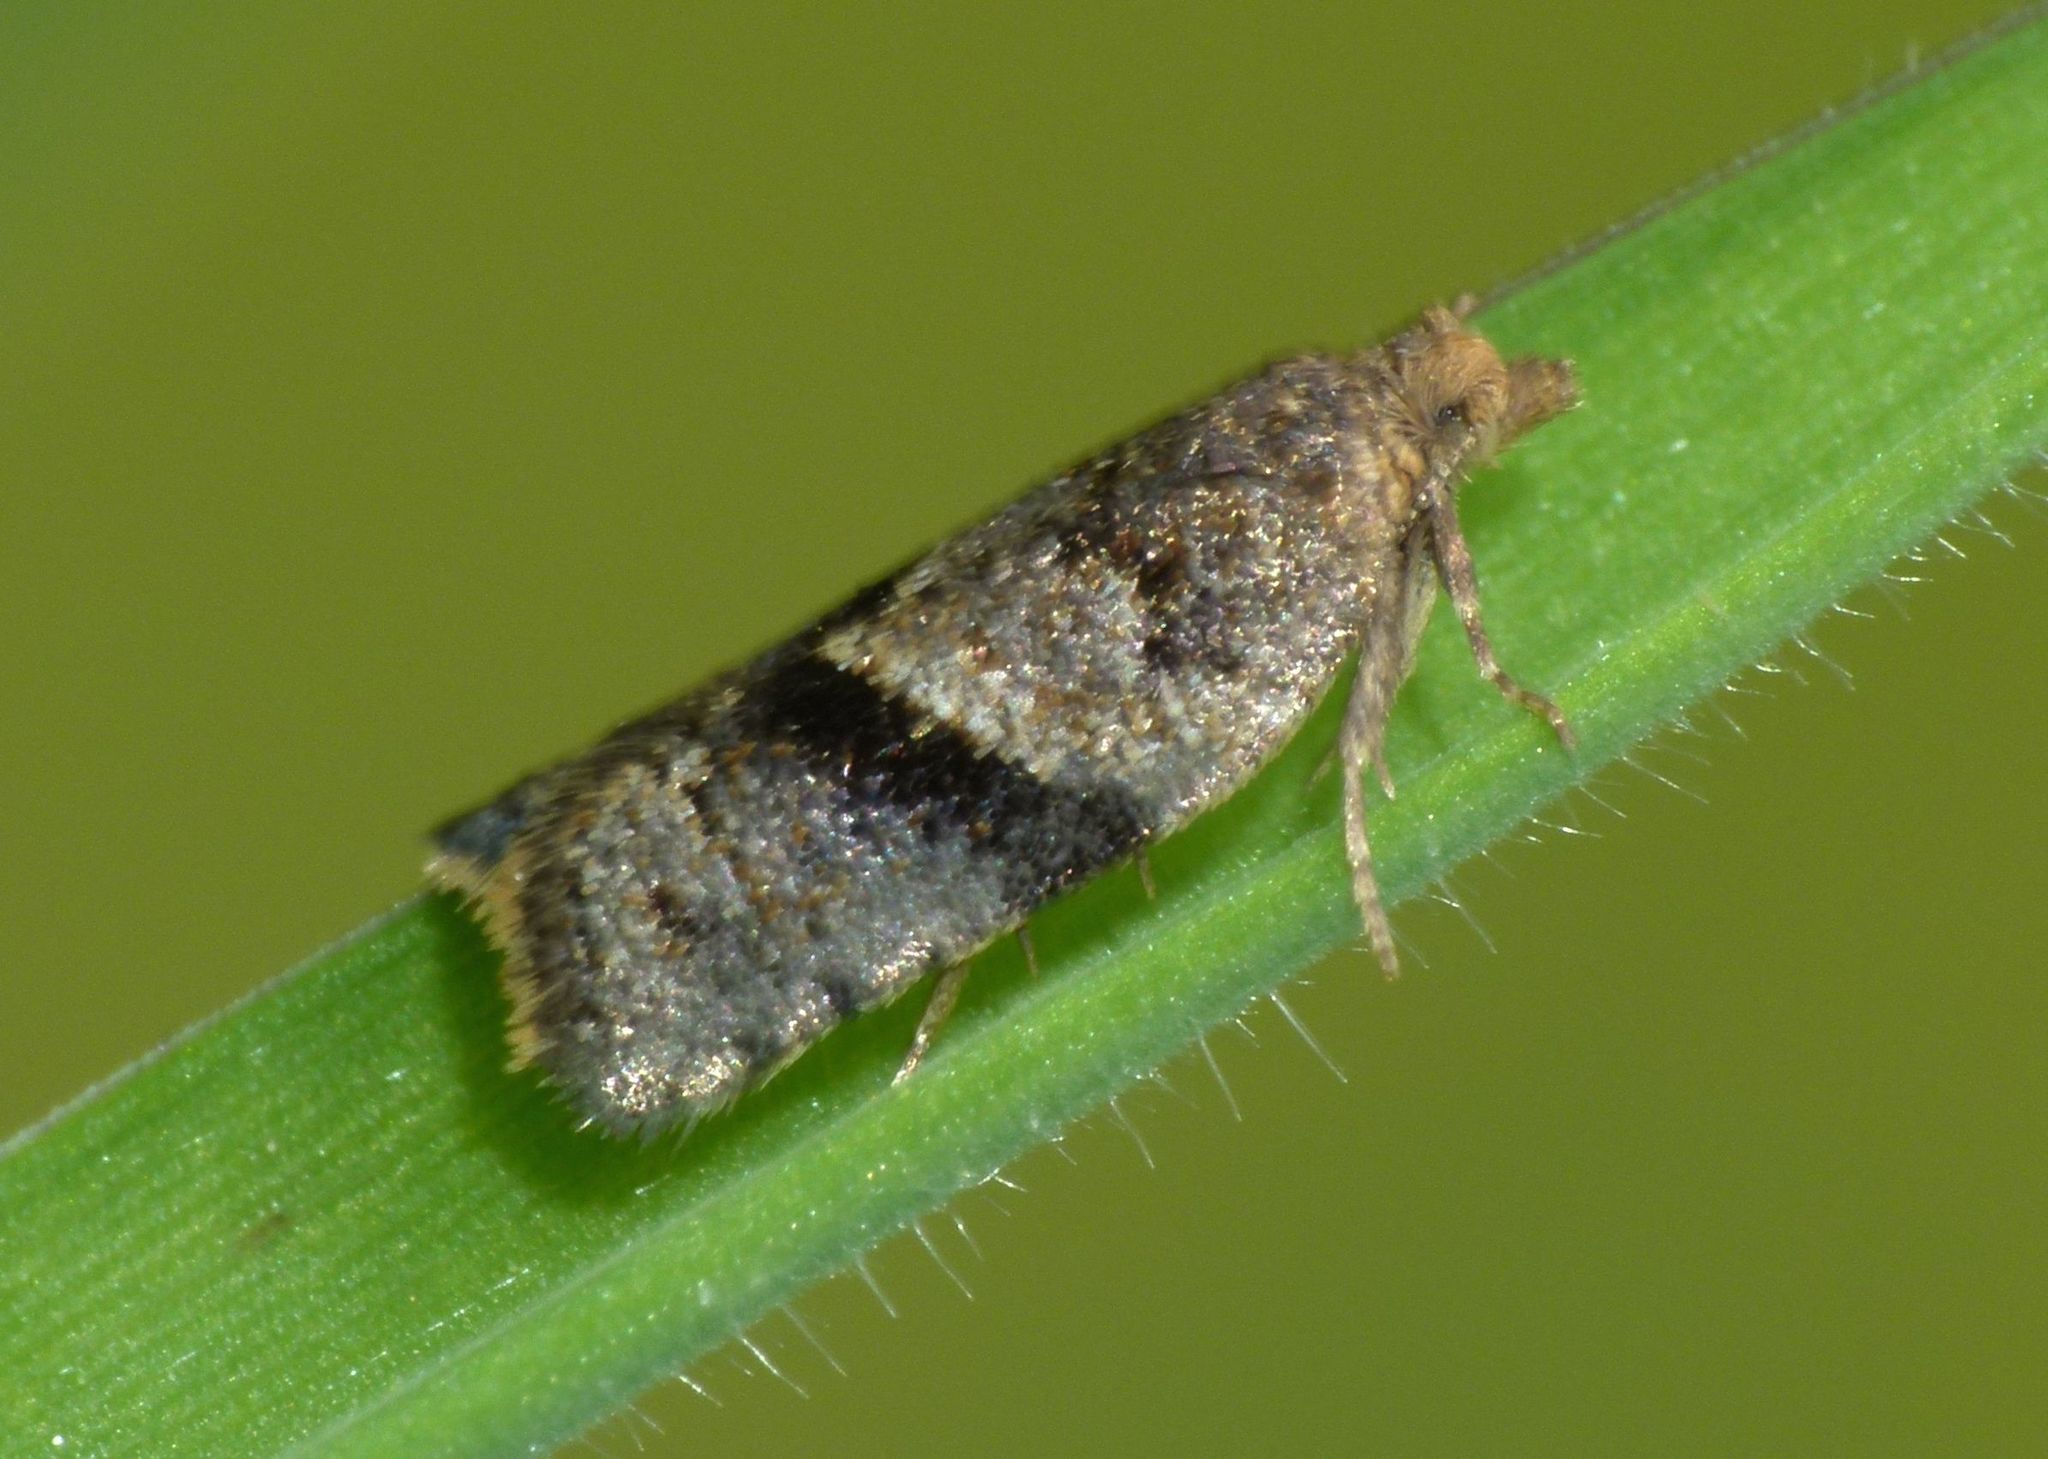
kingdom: Animalia
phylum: Arthropoda
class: Insecta
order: Lepidoptera
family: Tortricidae
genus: Epichorista
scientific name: Epichorista hemionana
